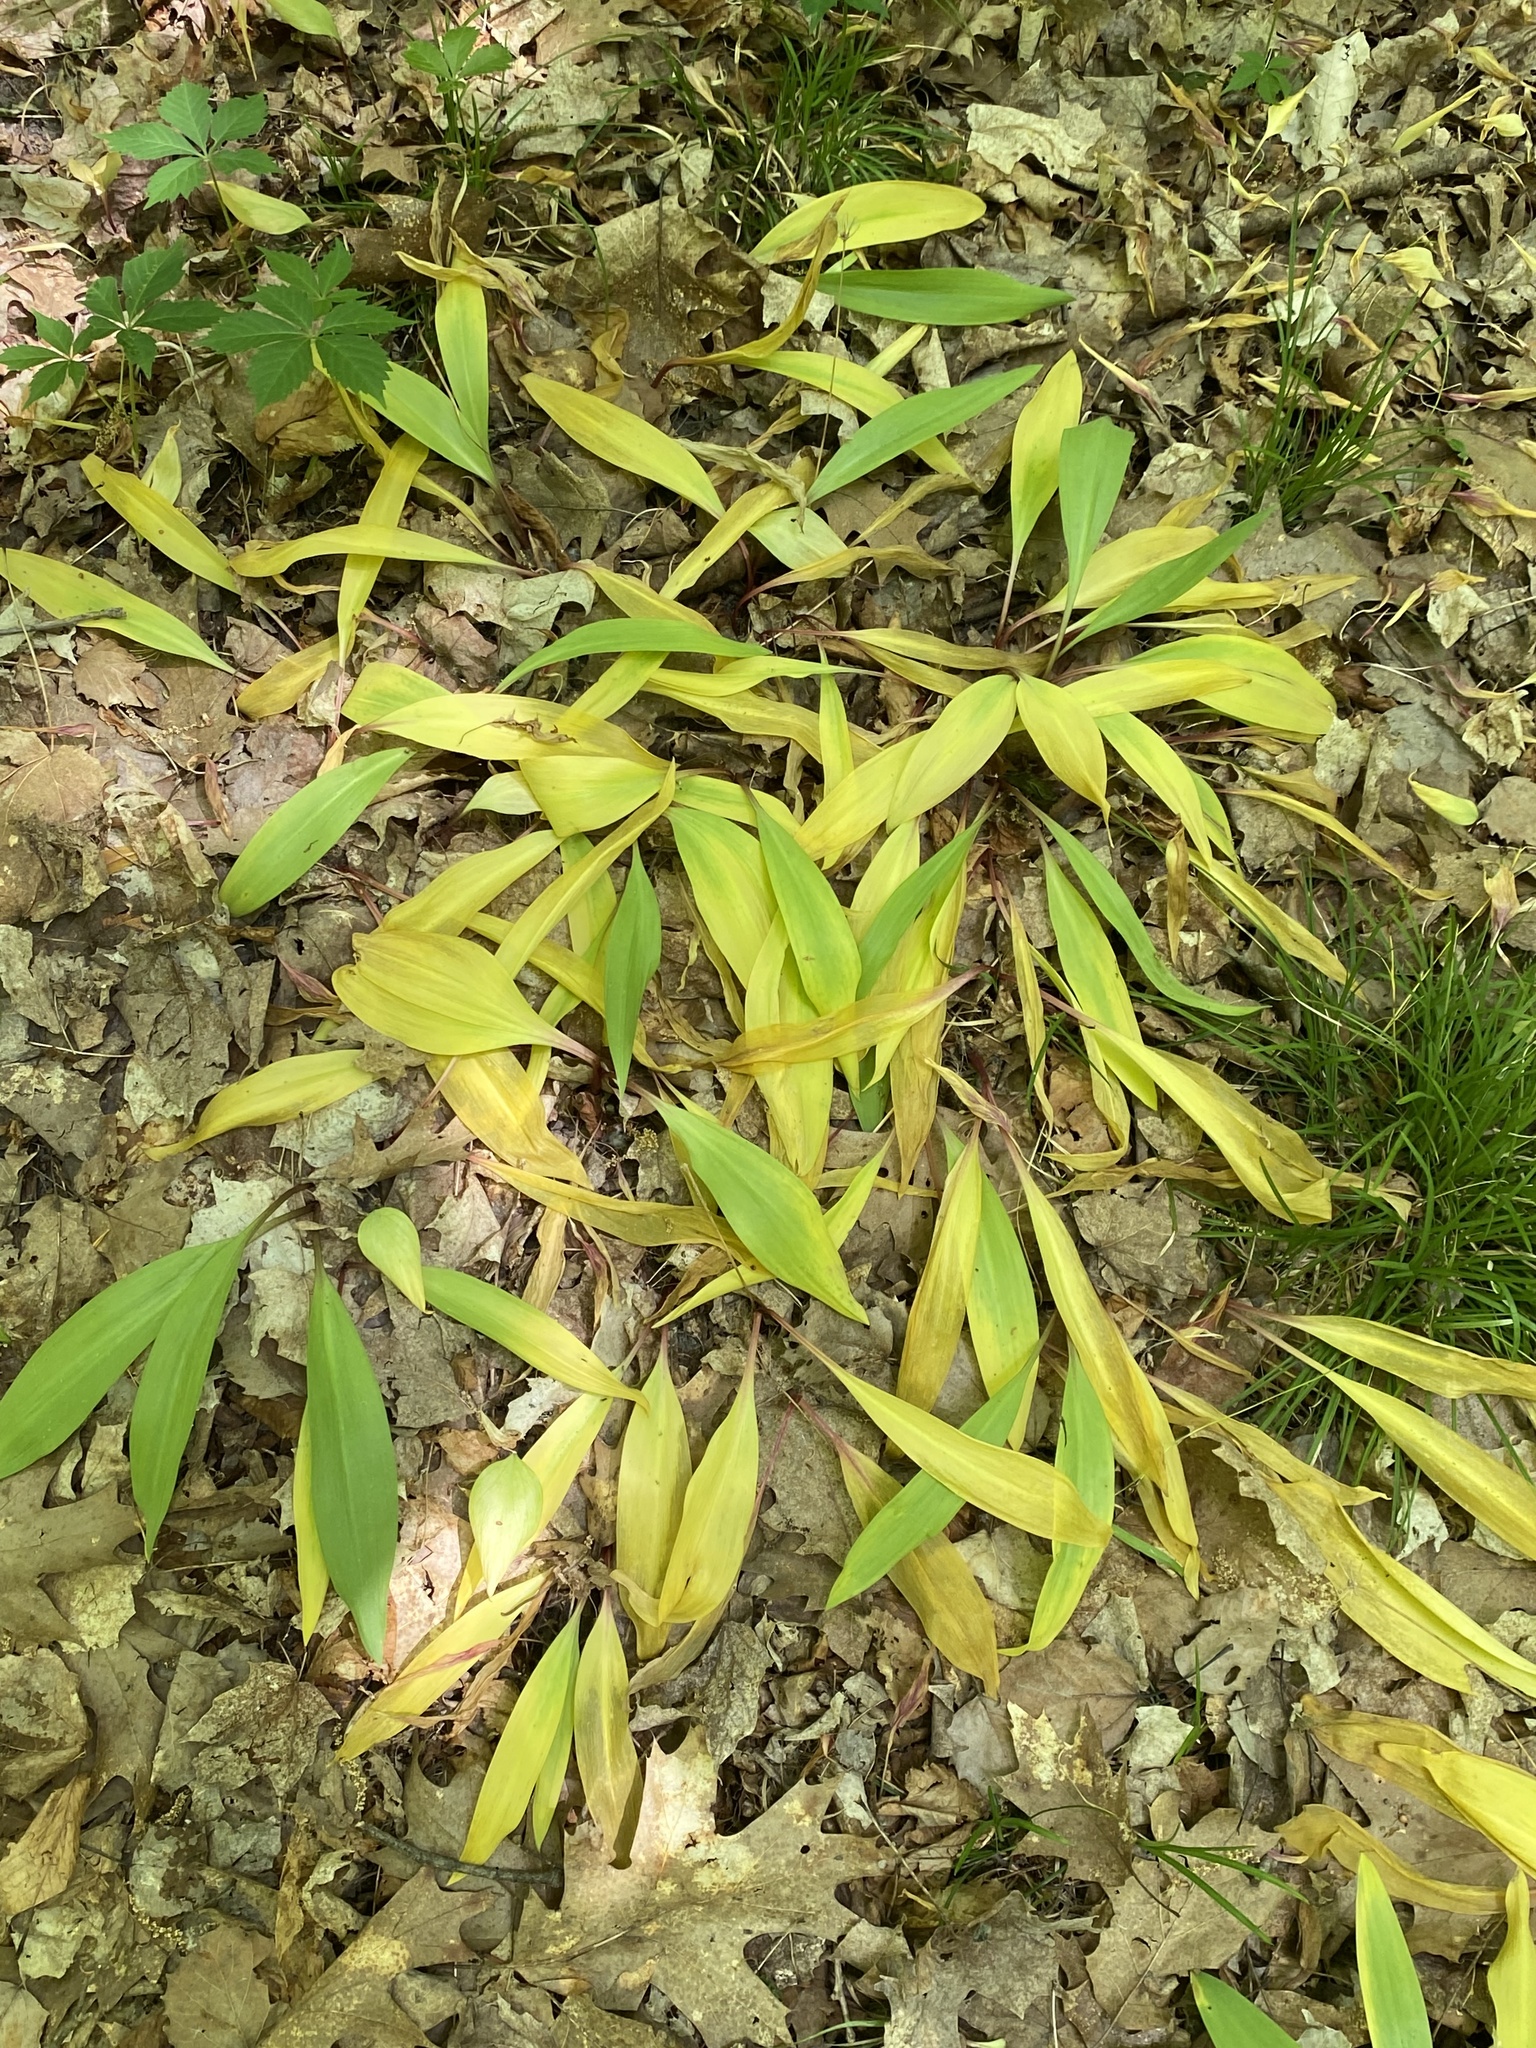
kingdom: Plantae
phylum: Tracheophyta
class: Liliopsida
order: Asparagales
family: Amaryllidaceae
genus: Allium
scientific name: Allium tricoccum
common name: Ramp
